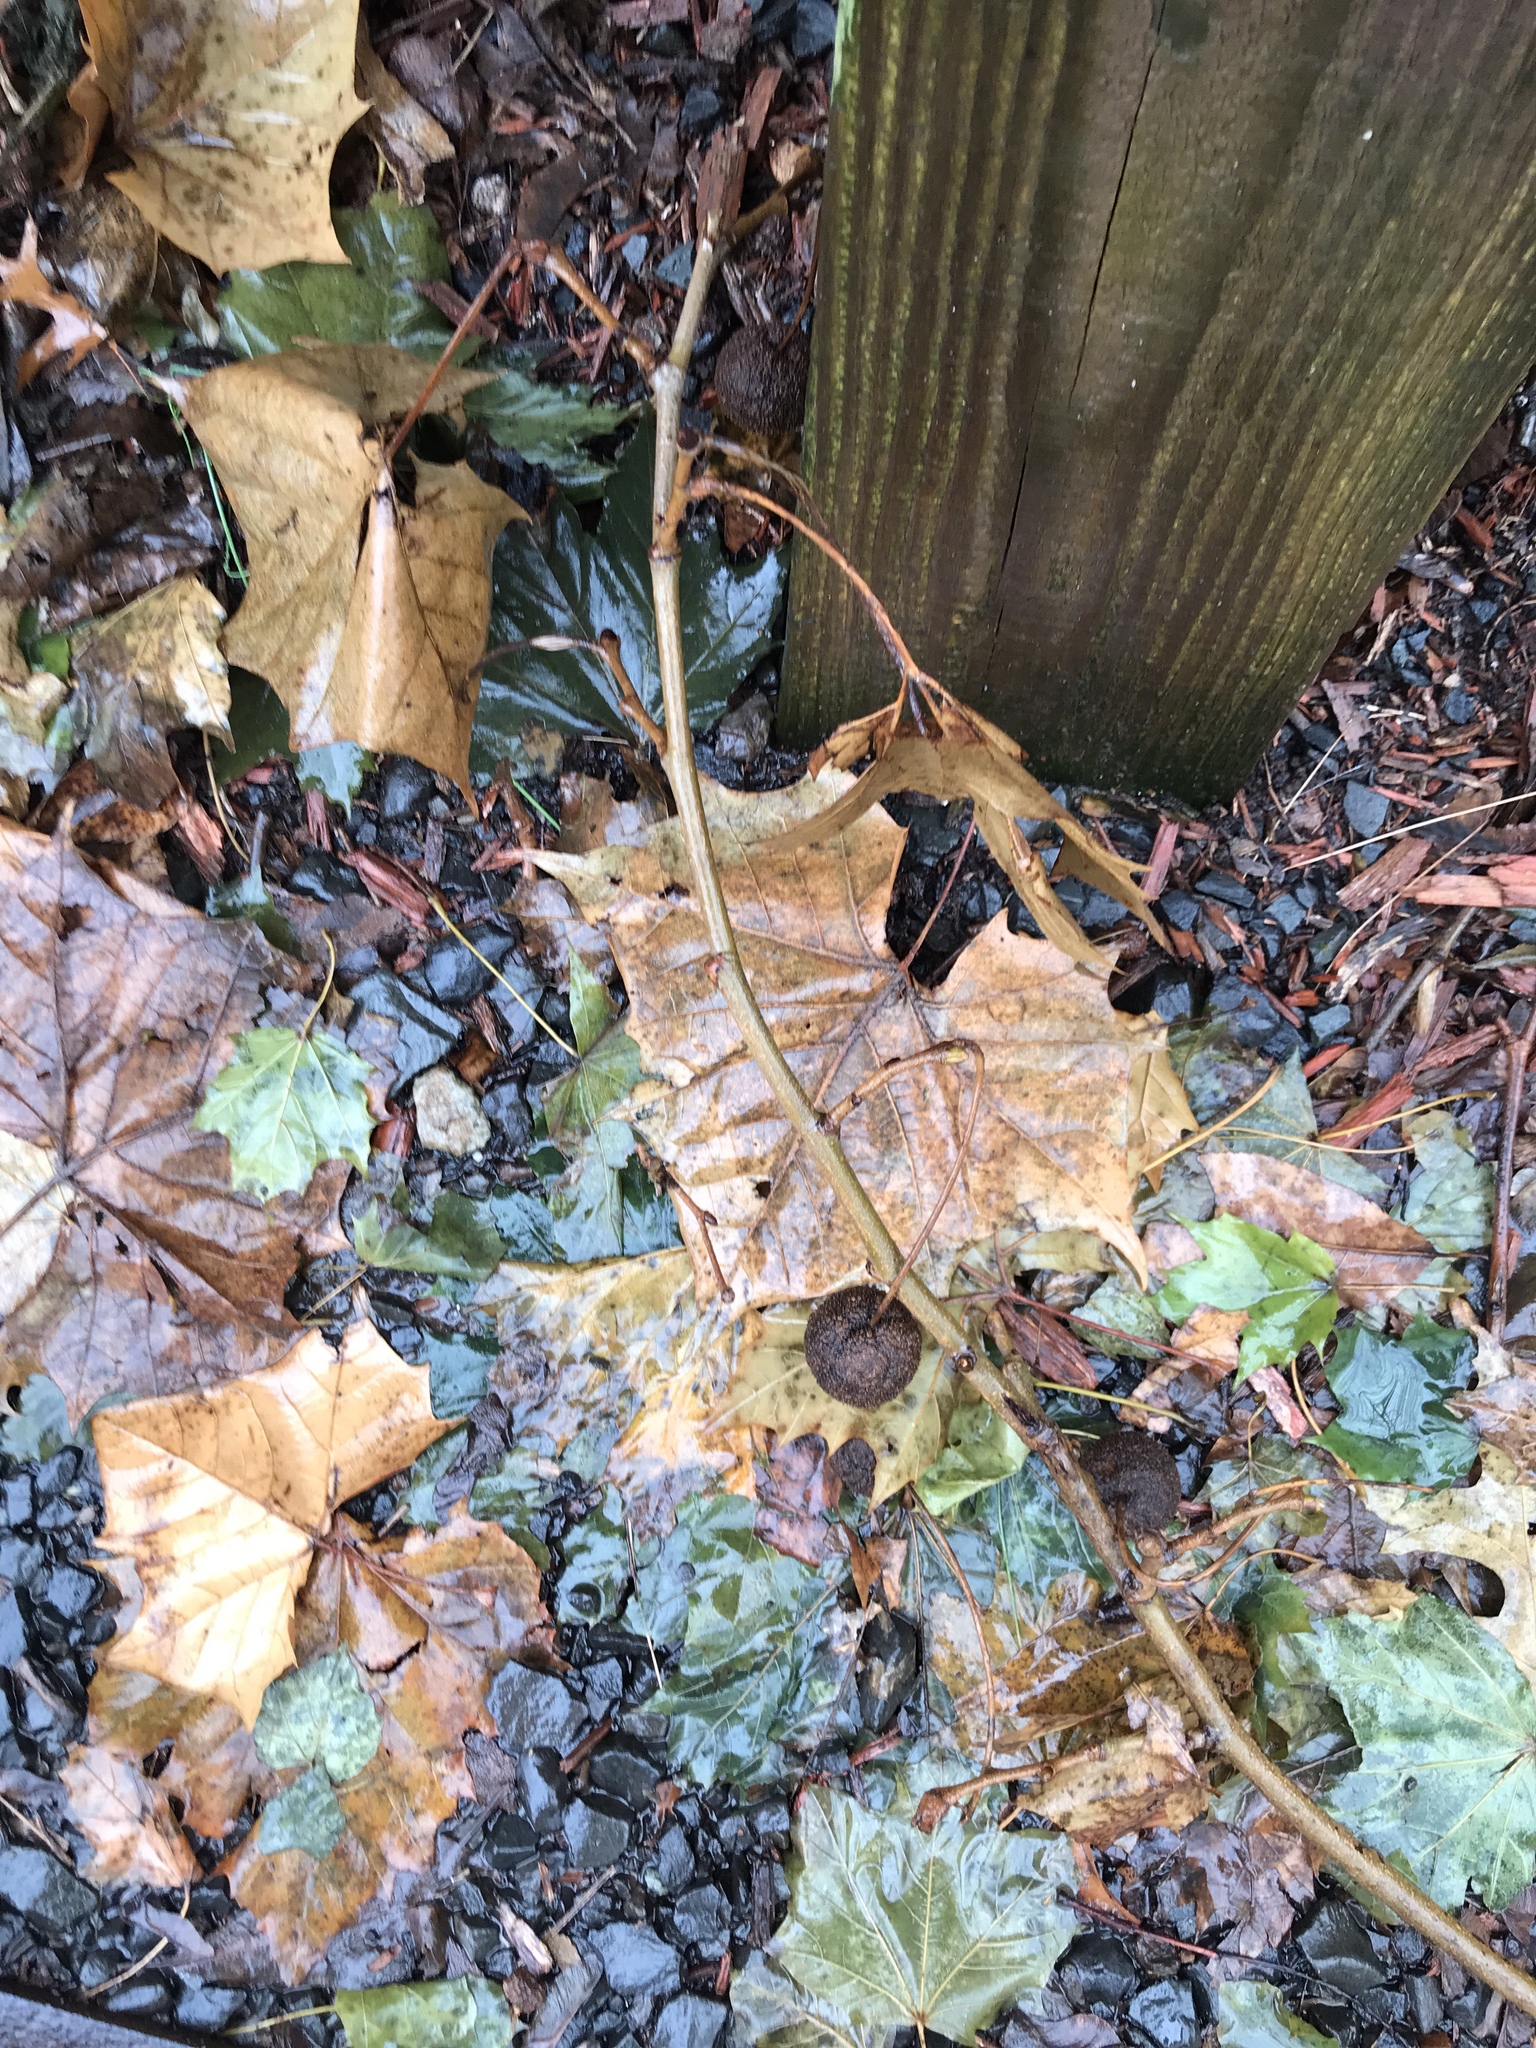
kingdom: Plantae
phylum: Tracheophyta
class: Magnoliopsida
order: Proteales
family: Platanaceae
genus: Platanus
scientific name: Platanus occidentalis
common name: American sycamore
